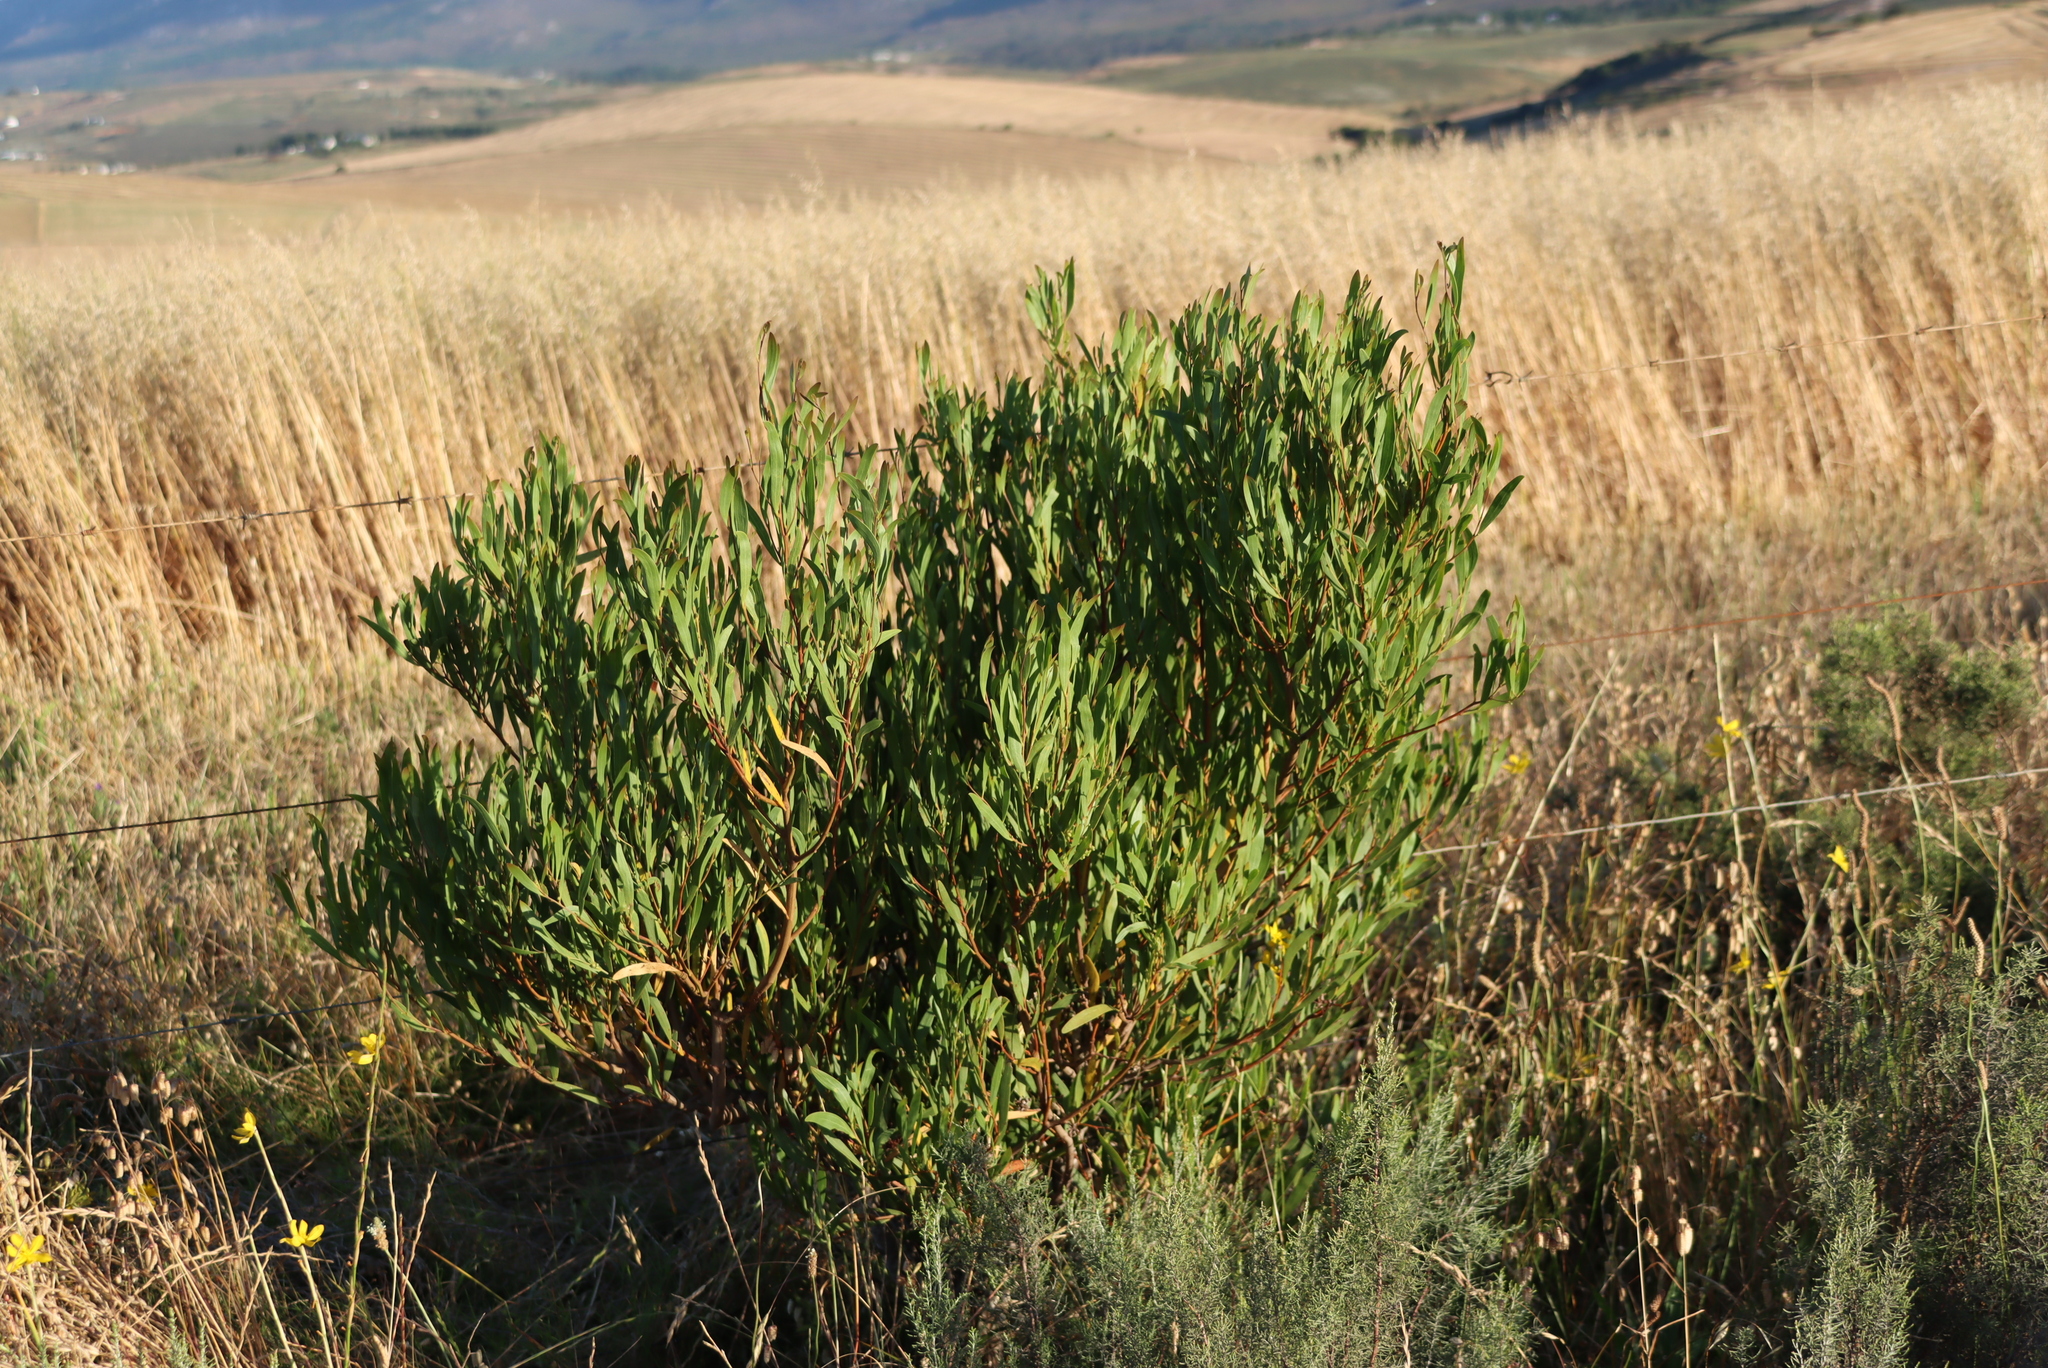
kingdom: Plantae
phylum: Tracheophyta
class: Magnoliopsida
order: Fabales
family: Fabaceae
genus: Acacia
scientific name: Acacia cyclops
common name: Coastal wattle
